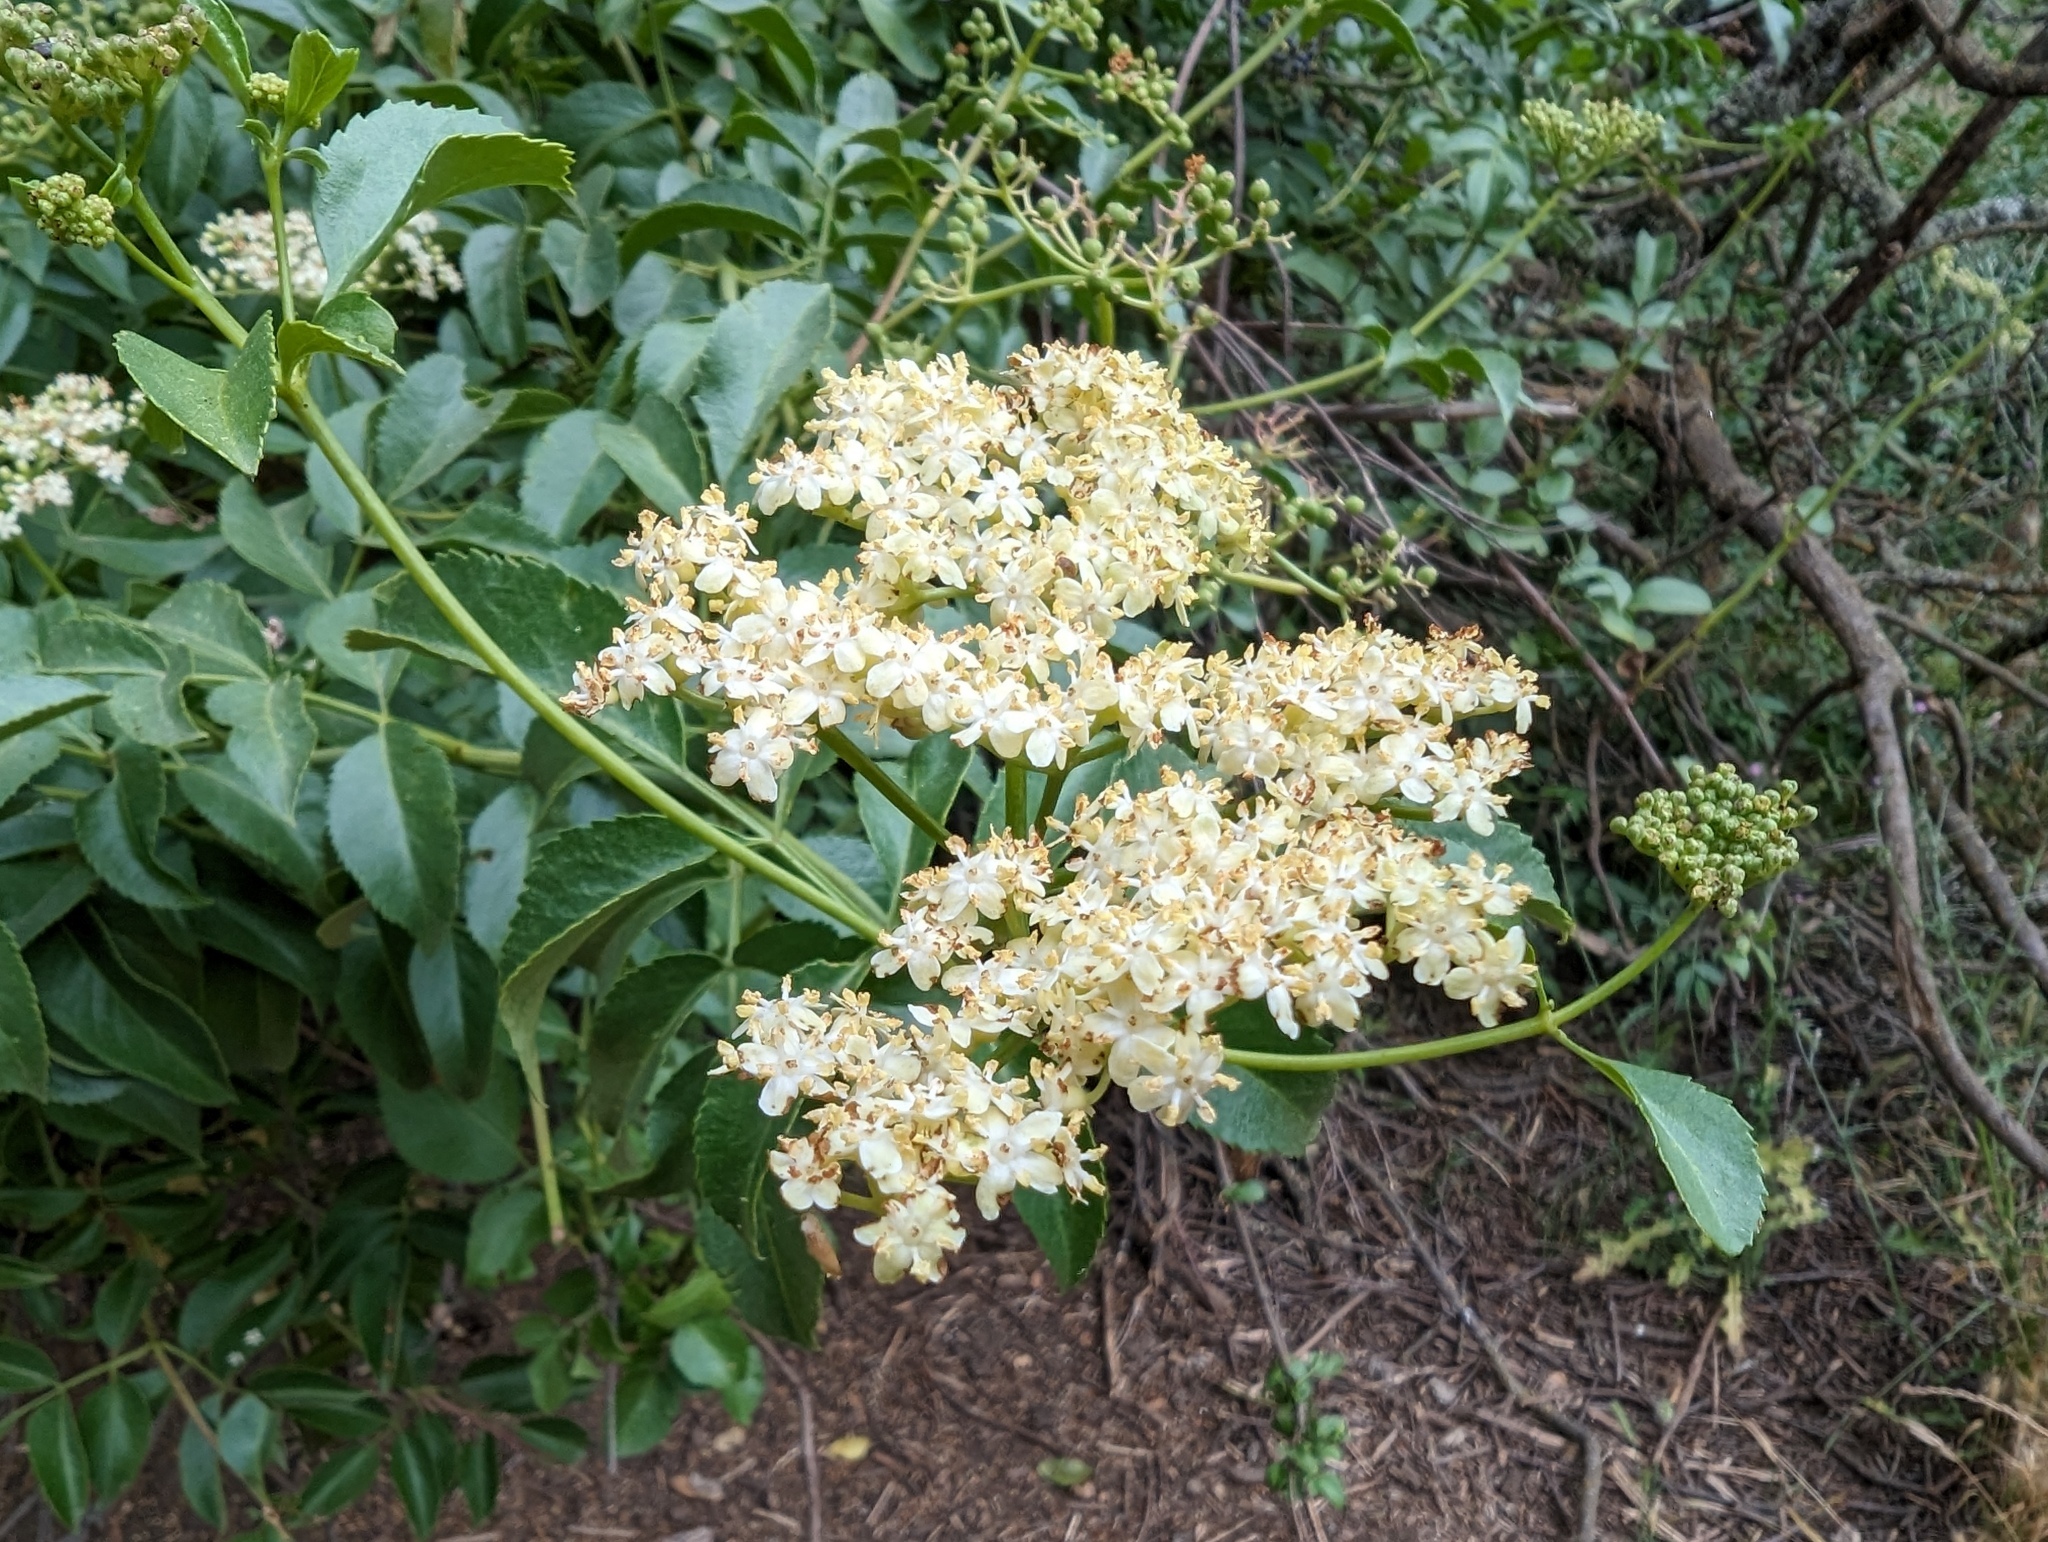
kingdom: Plantae
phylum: Tracheophyta
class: Magnoliopsida
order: Dipsacales
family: Viburnaceae
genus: Sambucus
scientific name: Sambucus cerulea
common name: Blue elder
